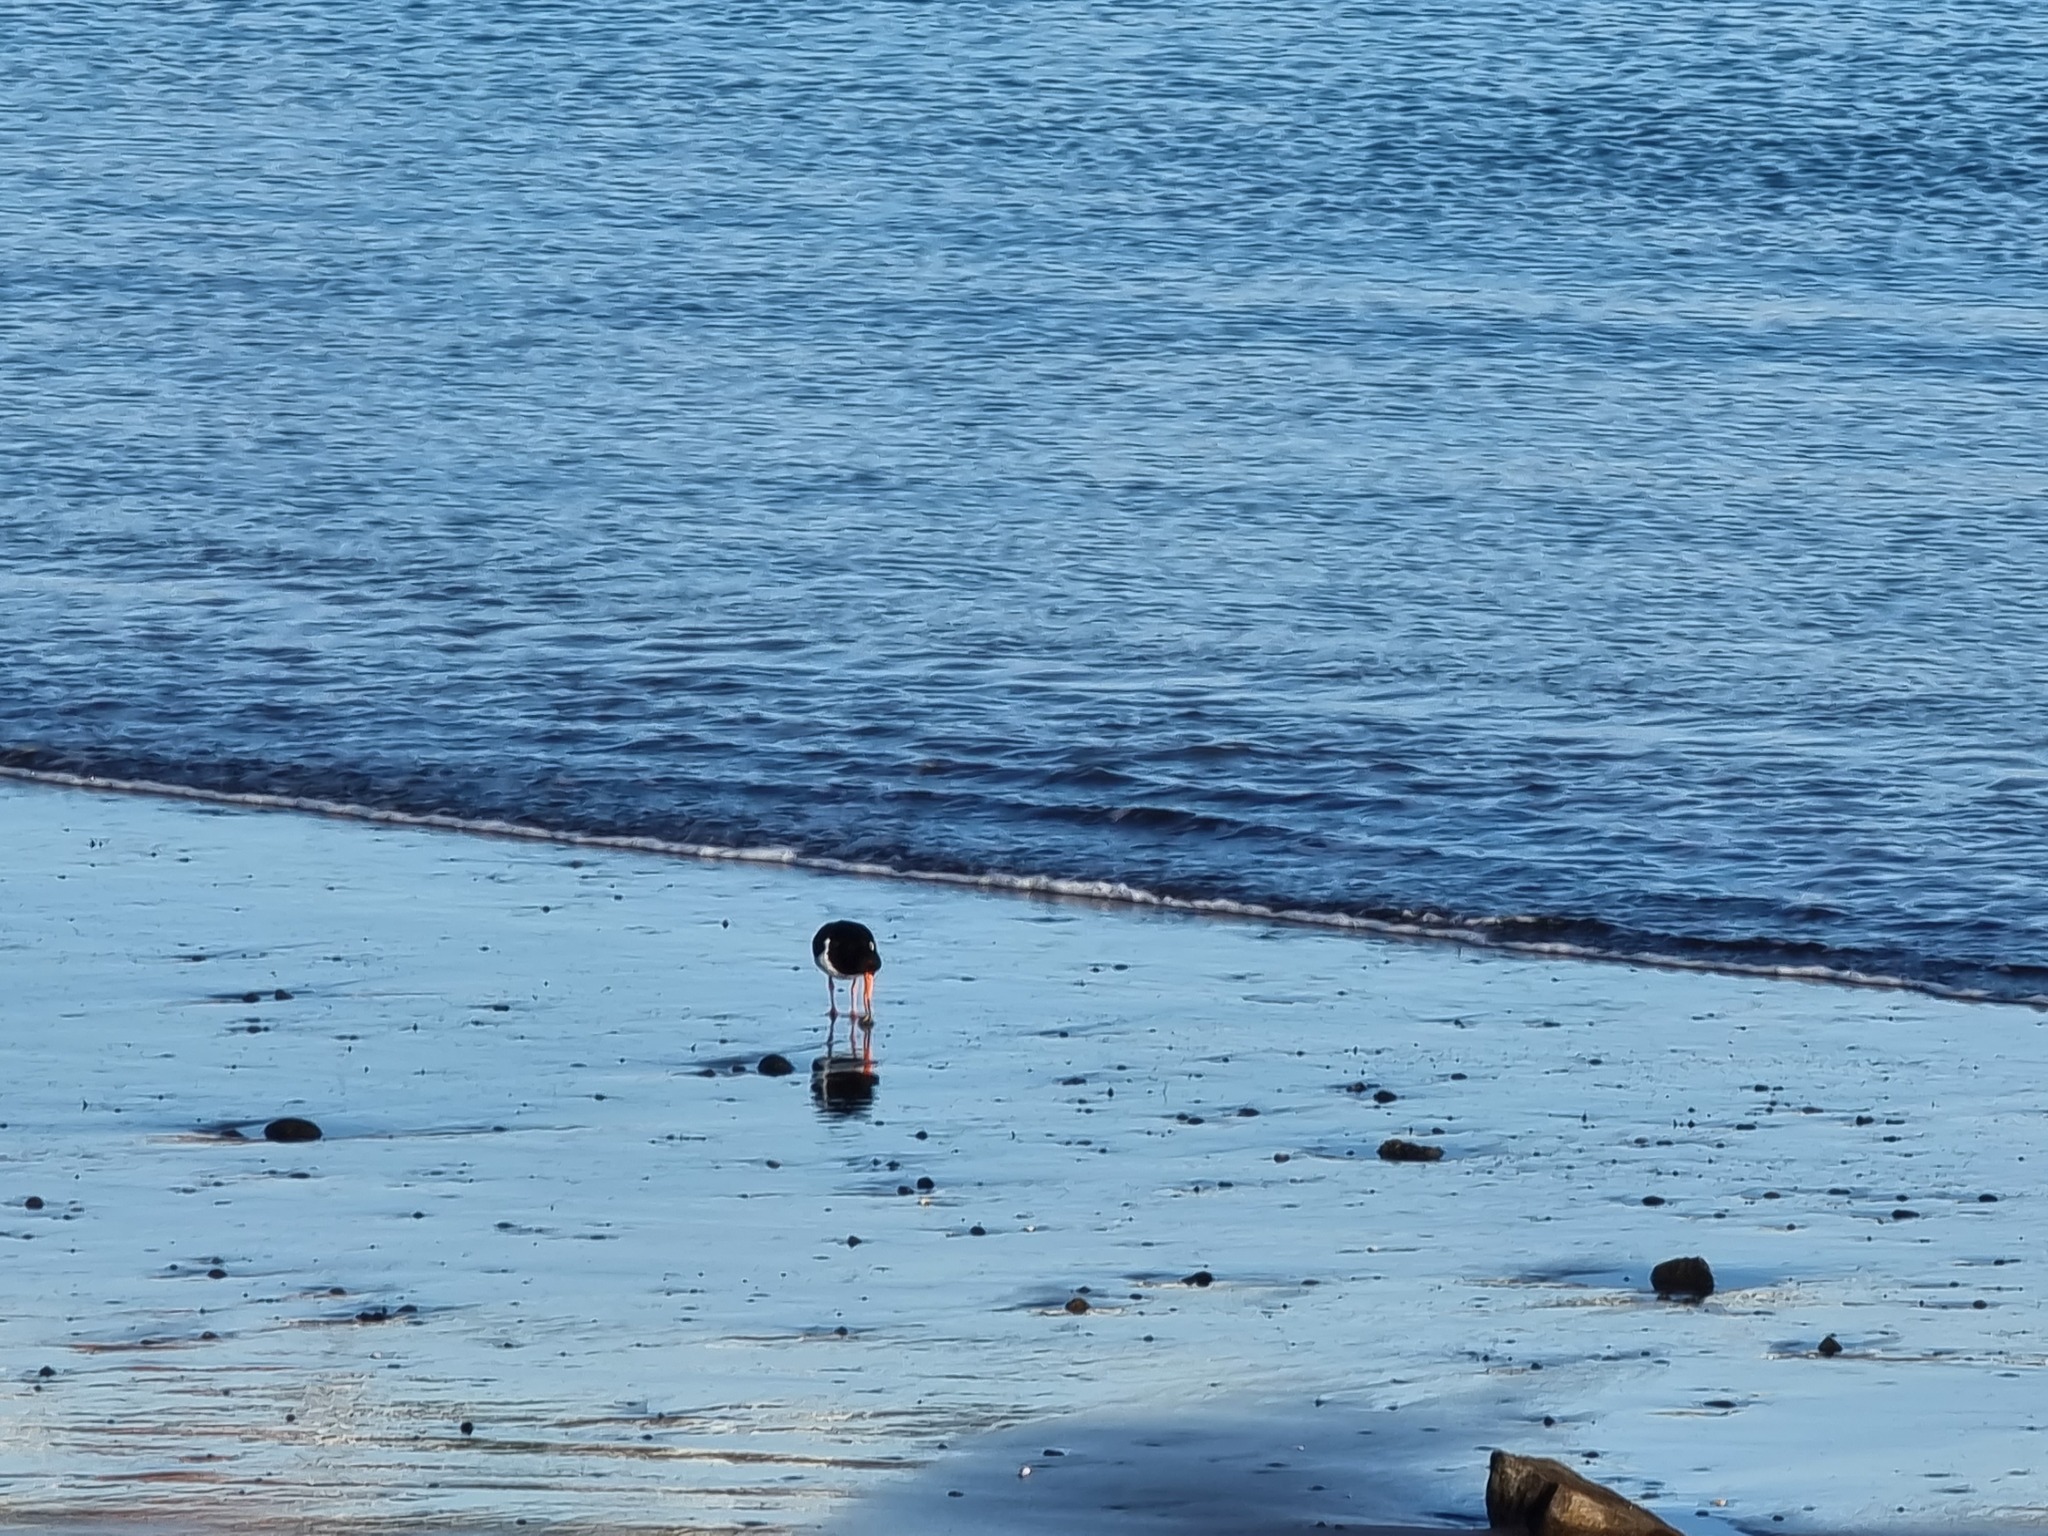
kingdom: Animalia
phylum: Chordata
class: Aves
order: Charadriiformes
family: Haematopodidae
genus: Haematopus
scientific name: Haematopus finschi
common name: South island oystercatcher
